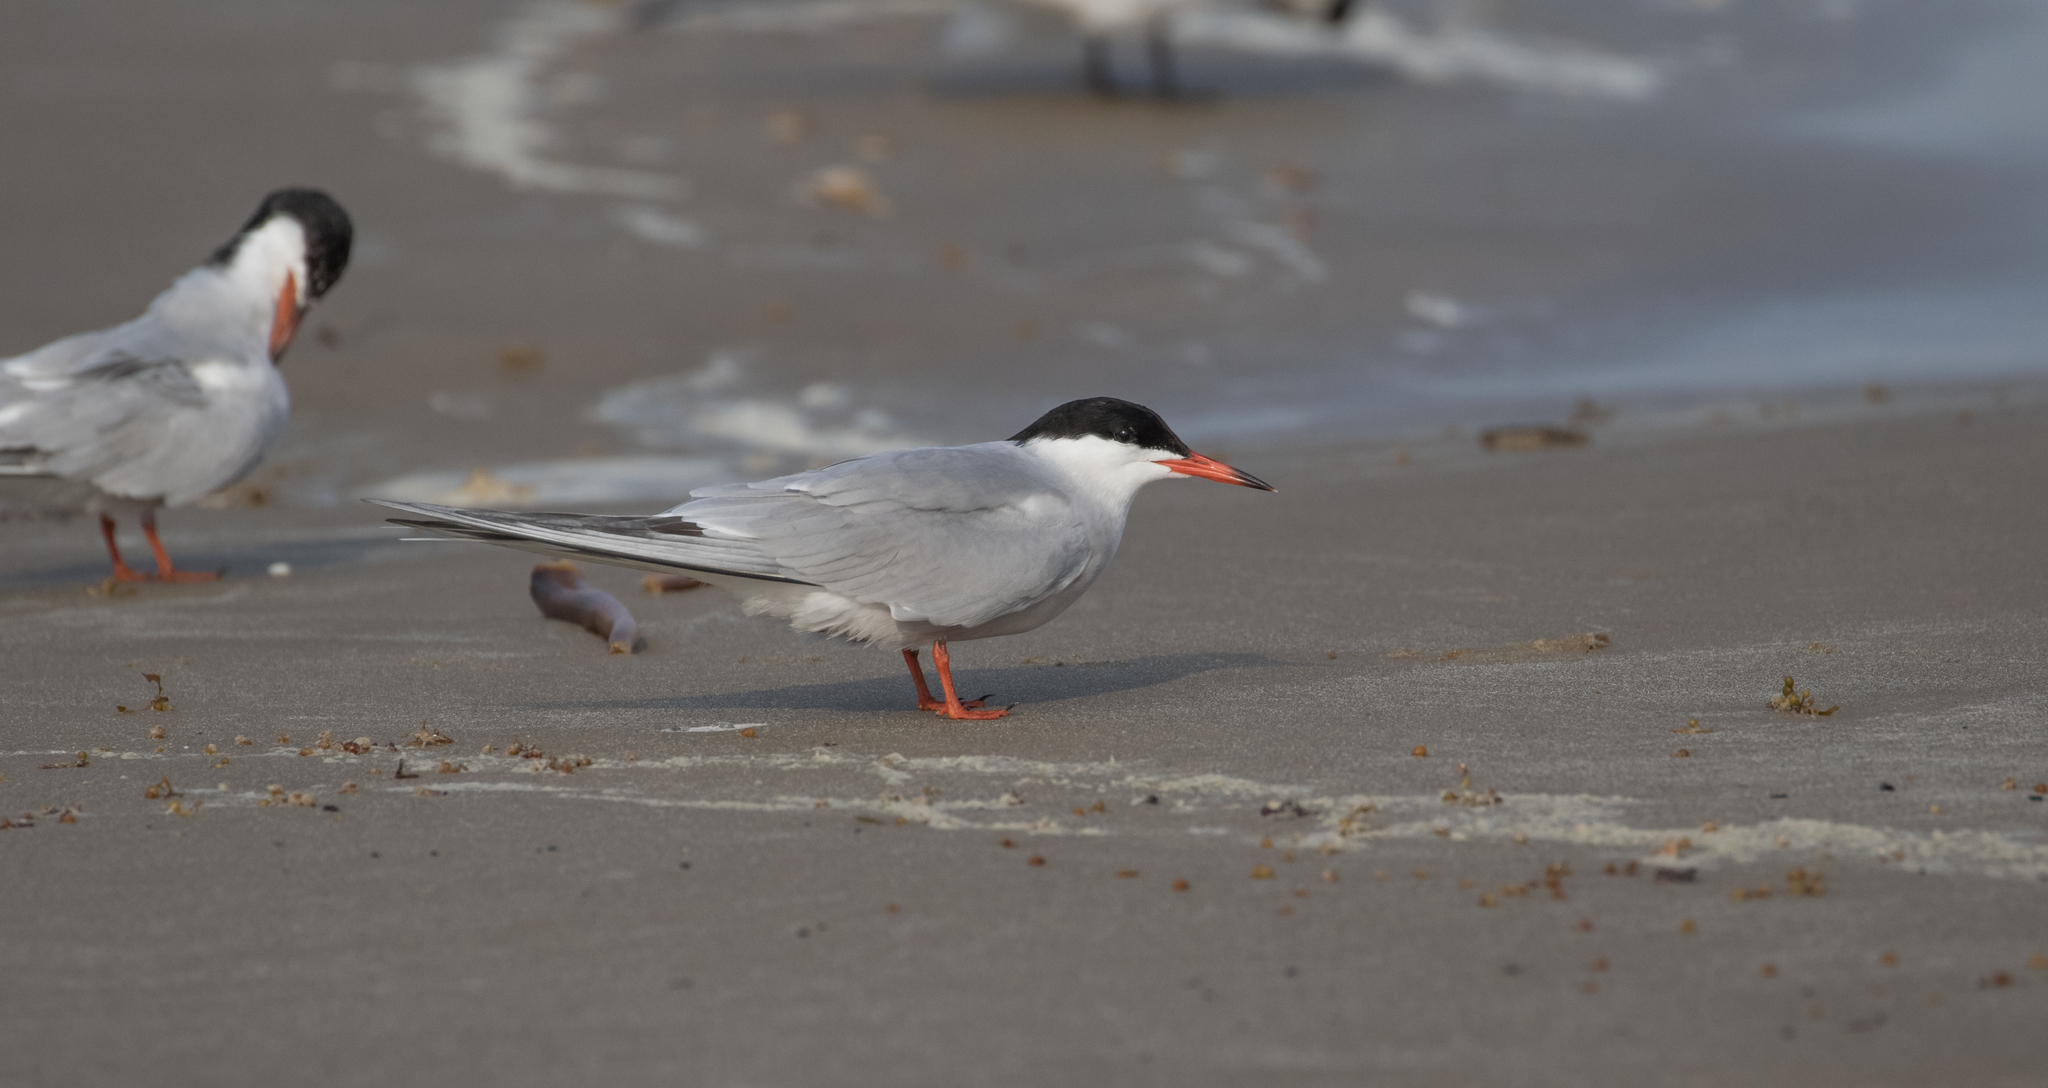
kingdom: Animalia
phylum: Chordata
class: Aves
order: Charadriiformes
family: Laridae
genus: Sterna
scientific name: Sterna hirundo
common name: Common tern
